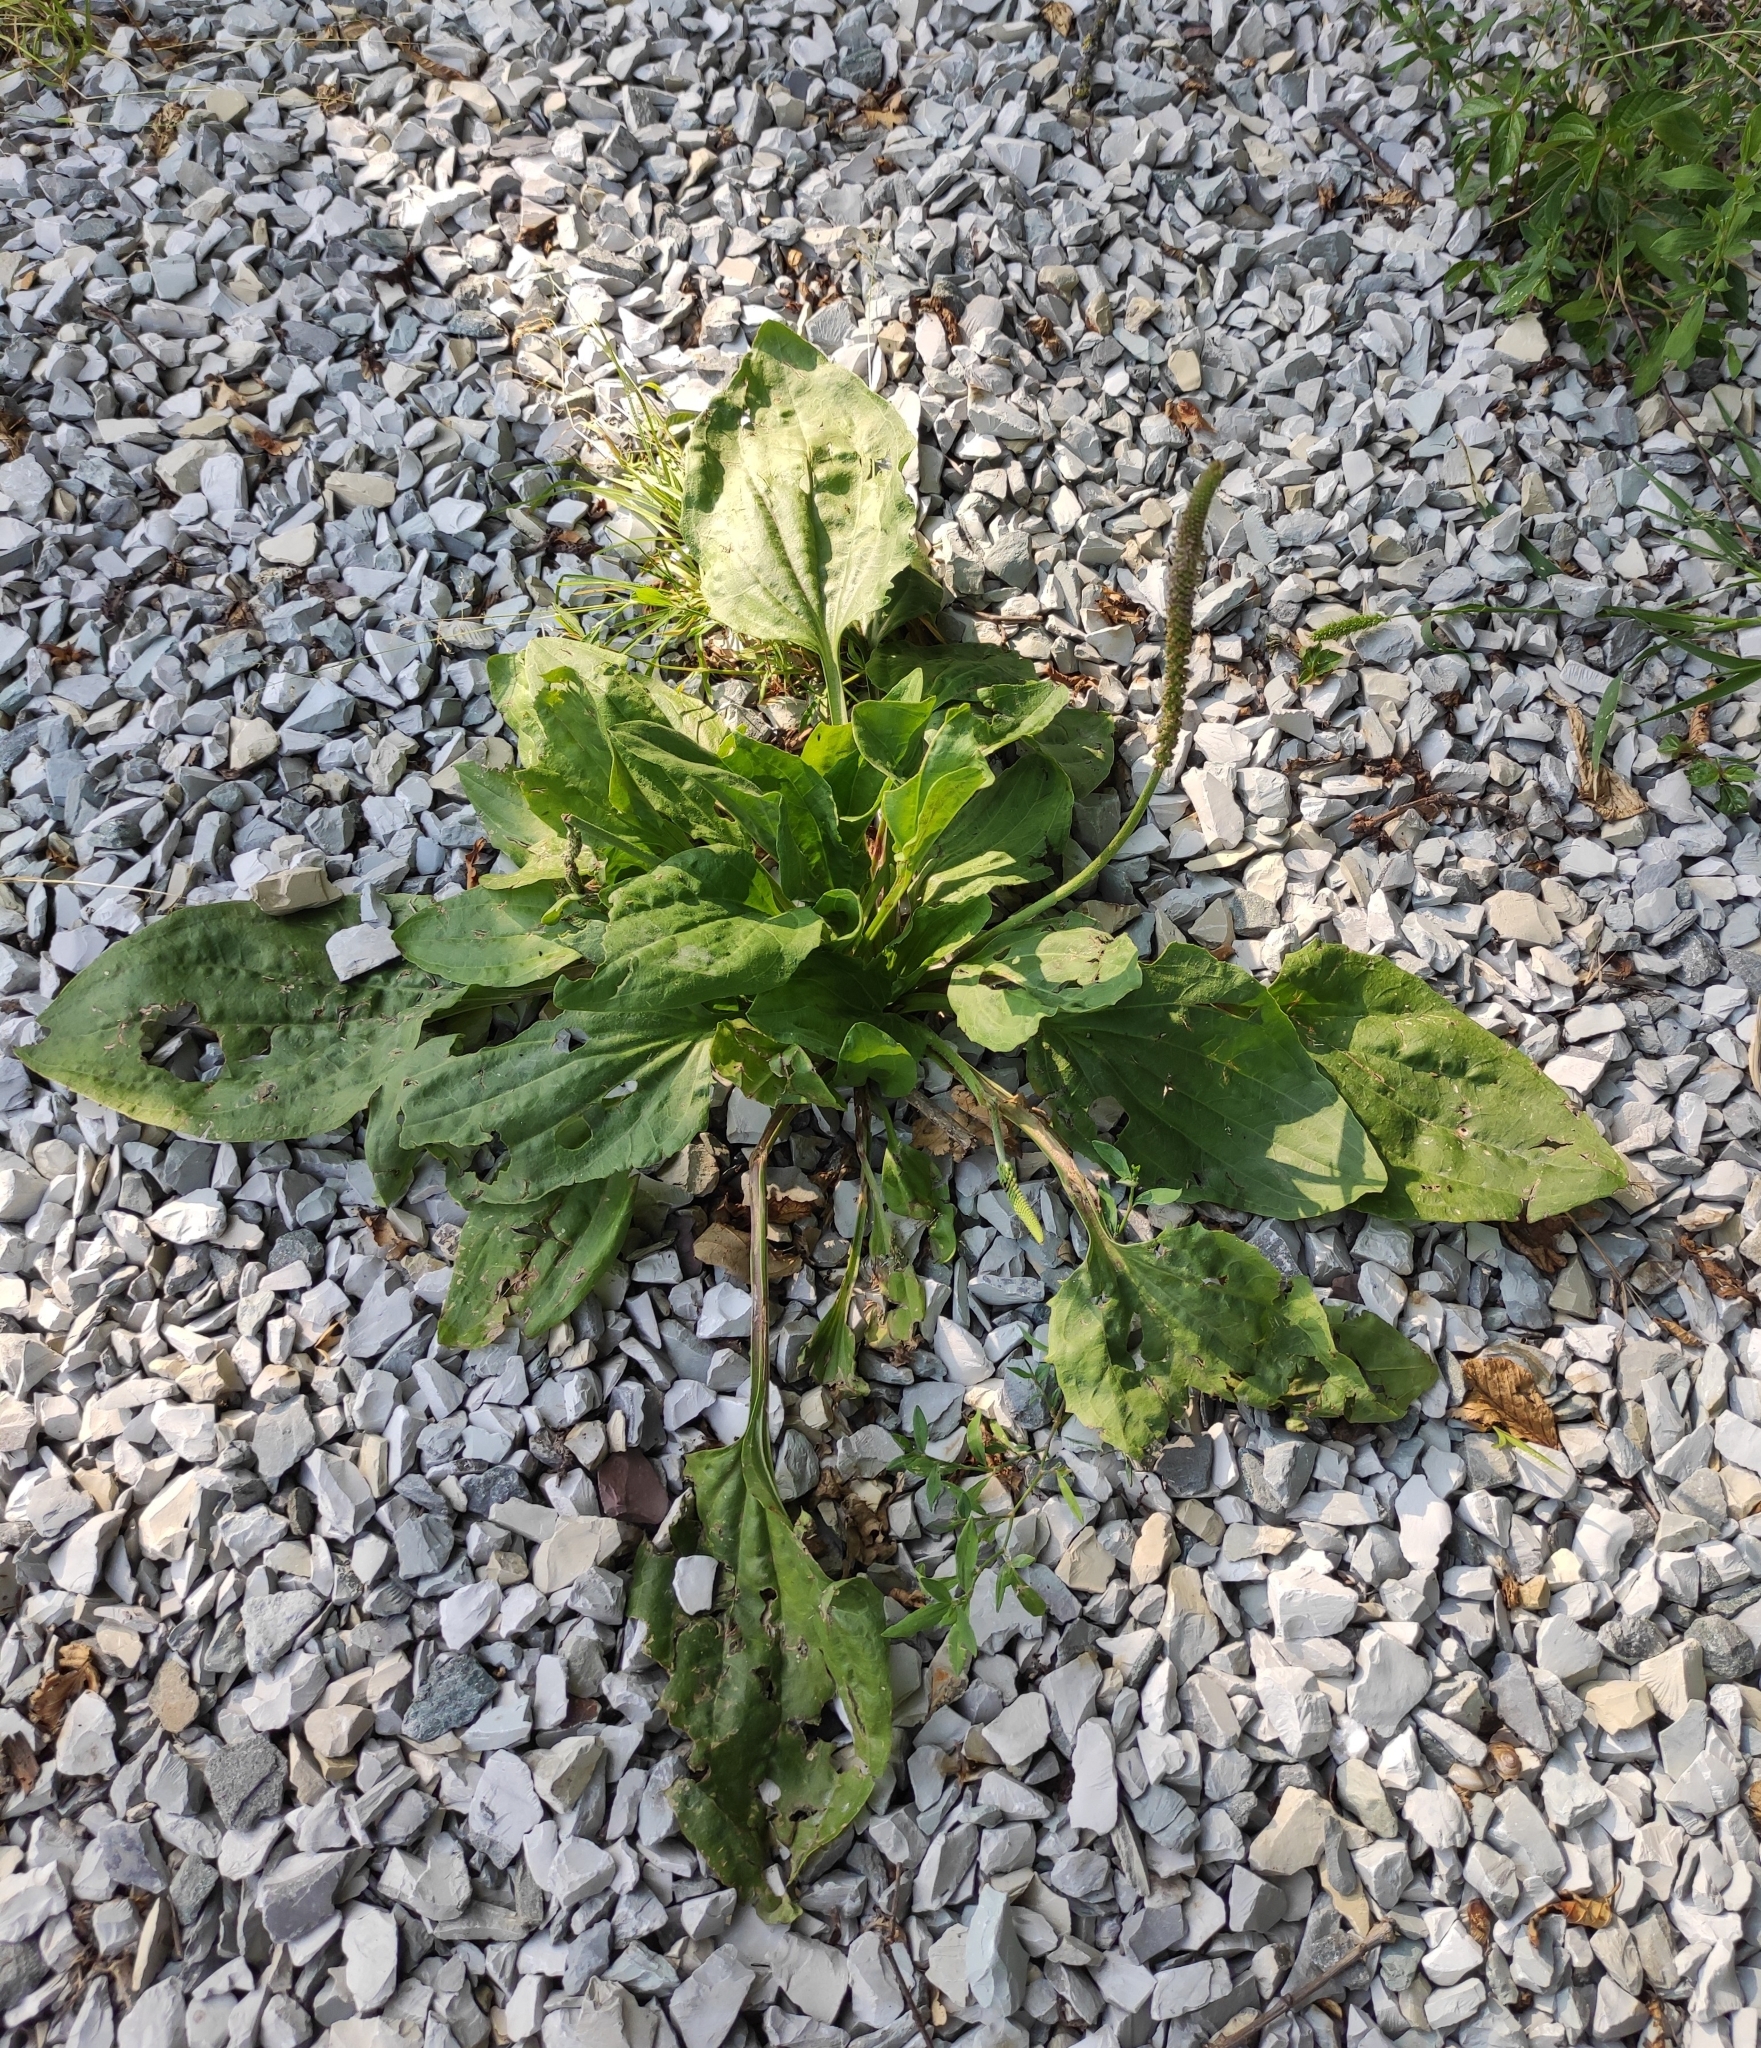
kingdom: Plantae
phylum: Tracheophyta
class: Magnoliopsida
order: Lamiales
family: Plantaginaceae
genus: Plantago
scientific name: Plantago major
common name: Common plantain
